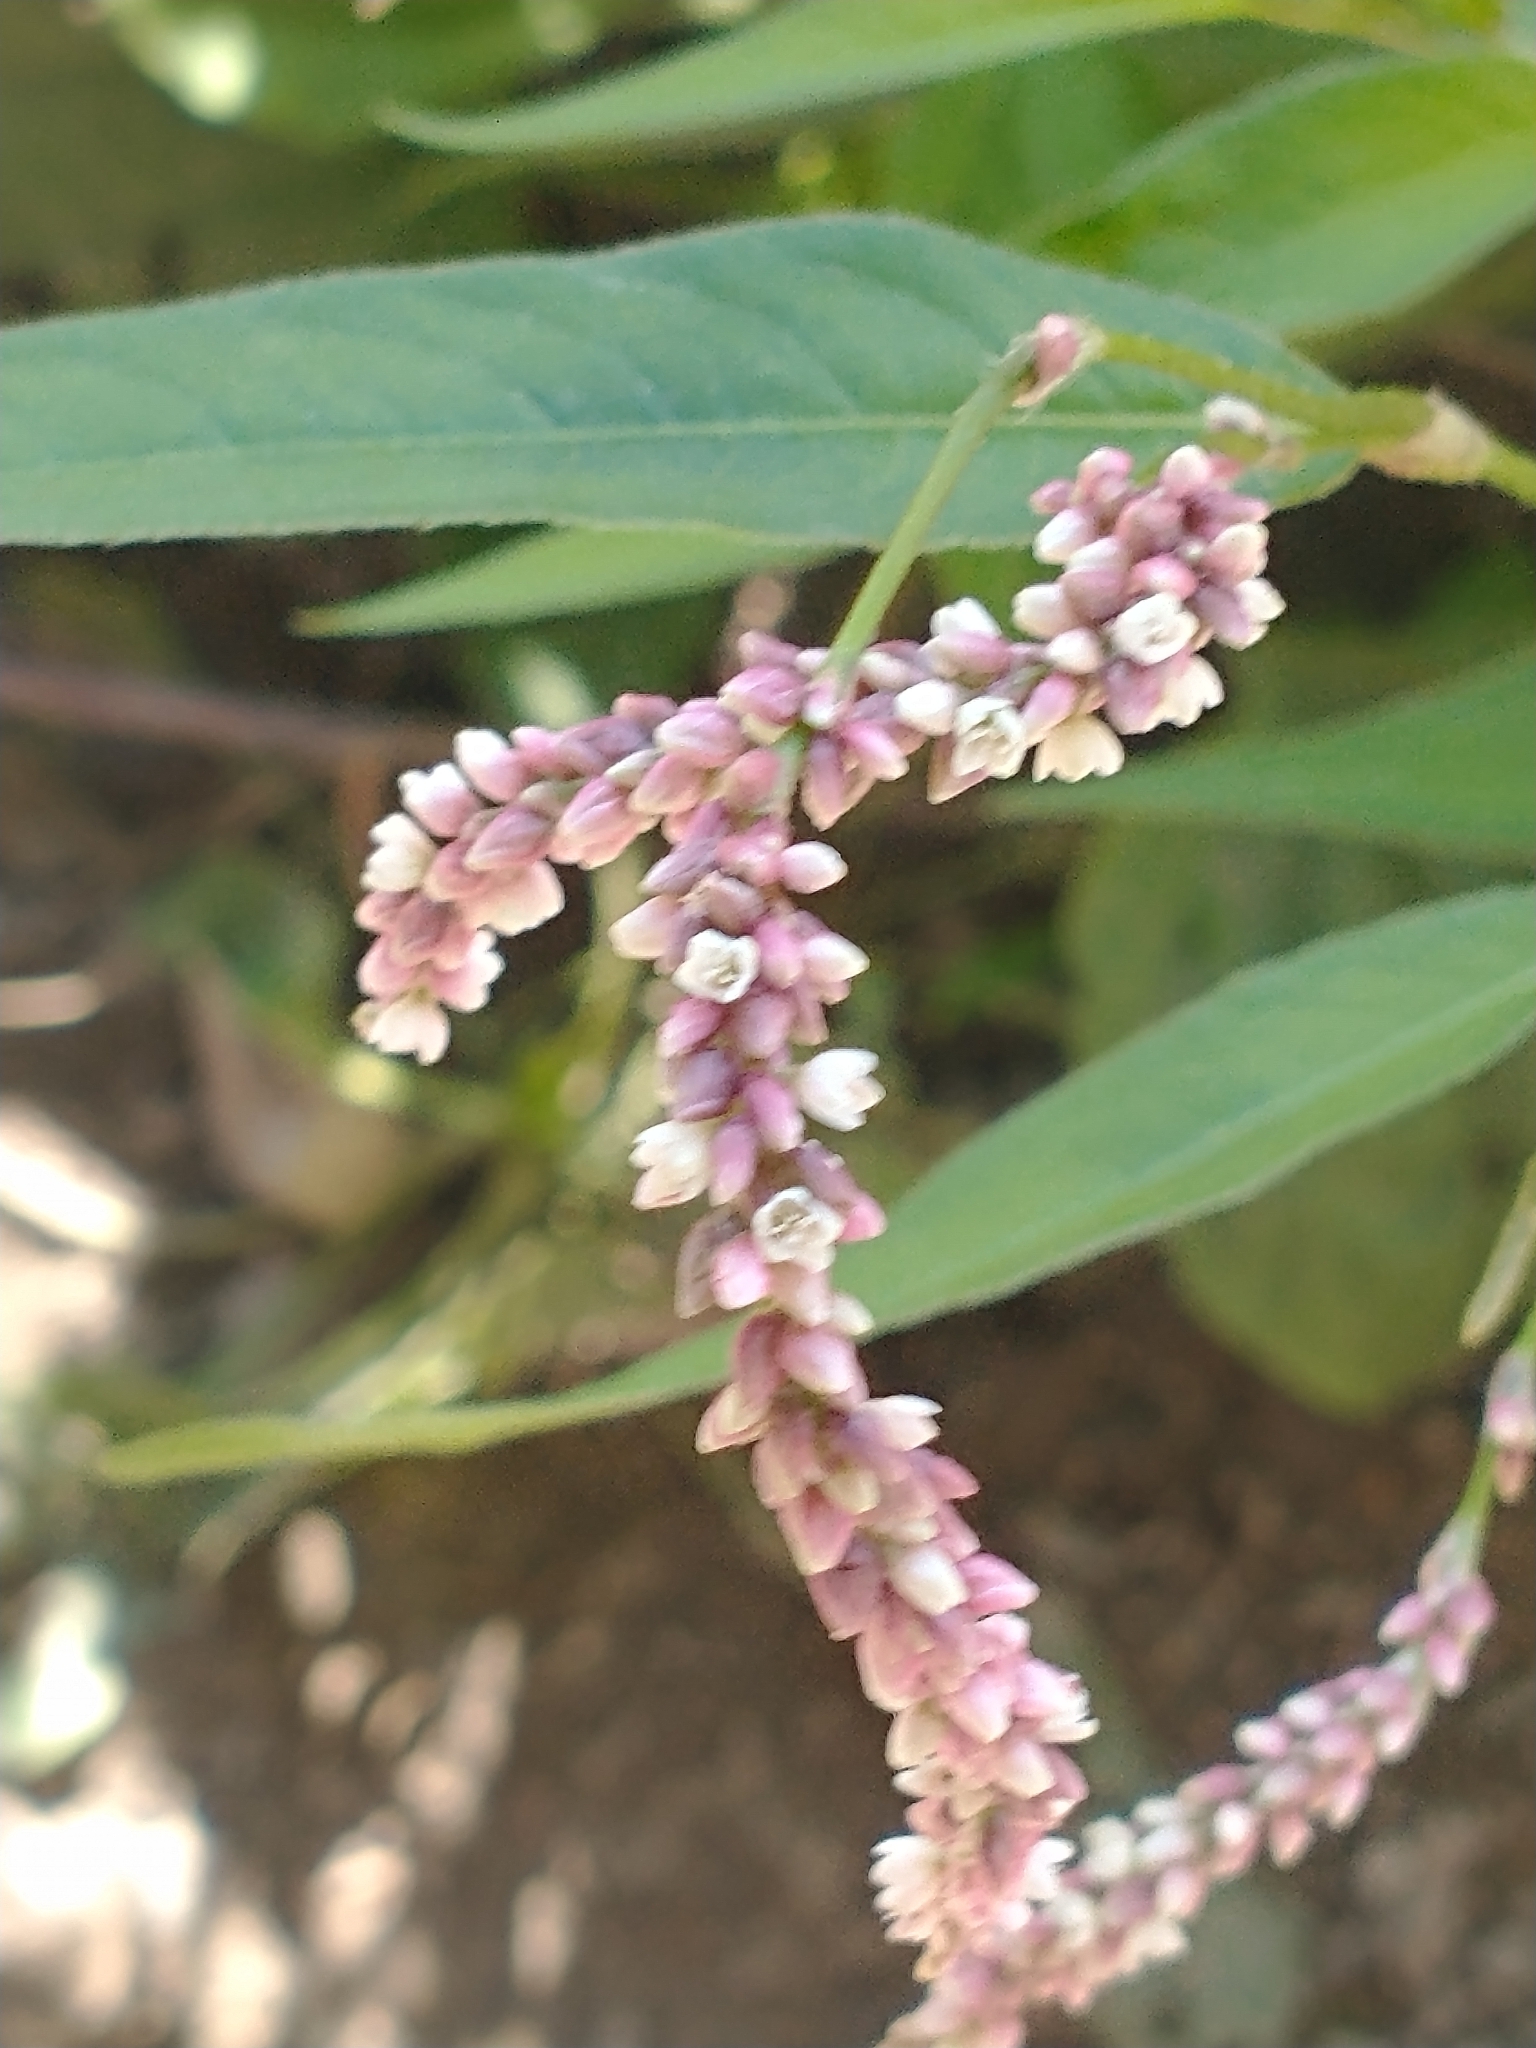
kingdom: Plantae
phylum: Tracheophyta
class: Magnoliopsida
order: Caryophyllales
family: Polygonaceae
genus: Persicaria
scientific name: Persicaria extremiorientalis
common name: Far-eastern smartweed
